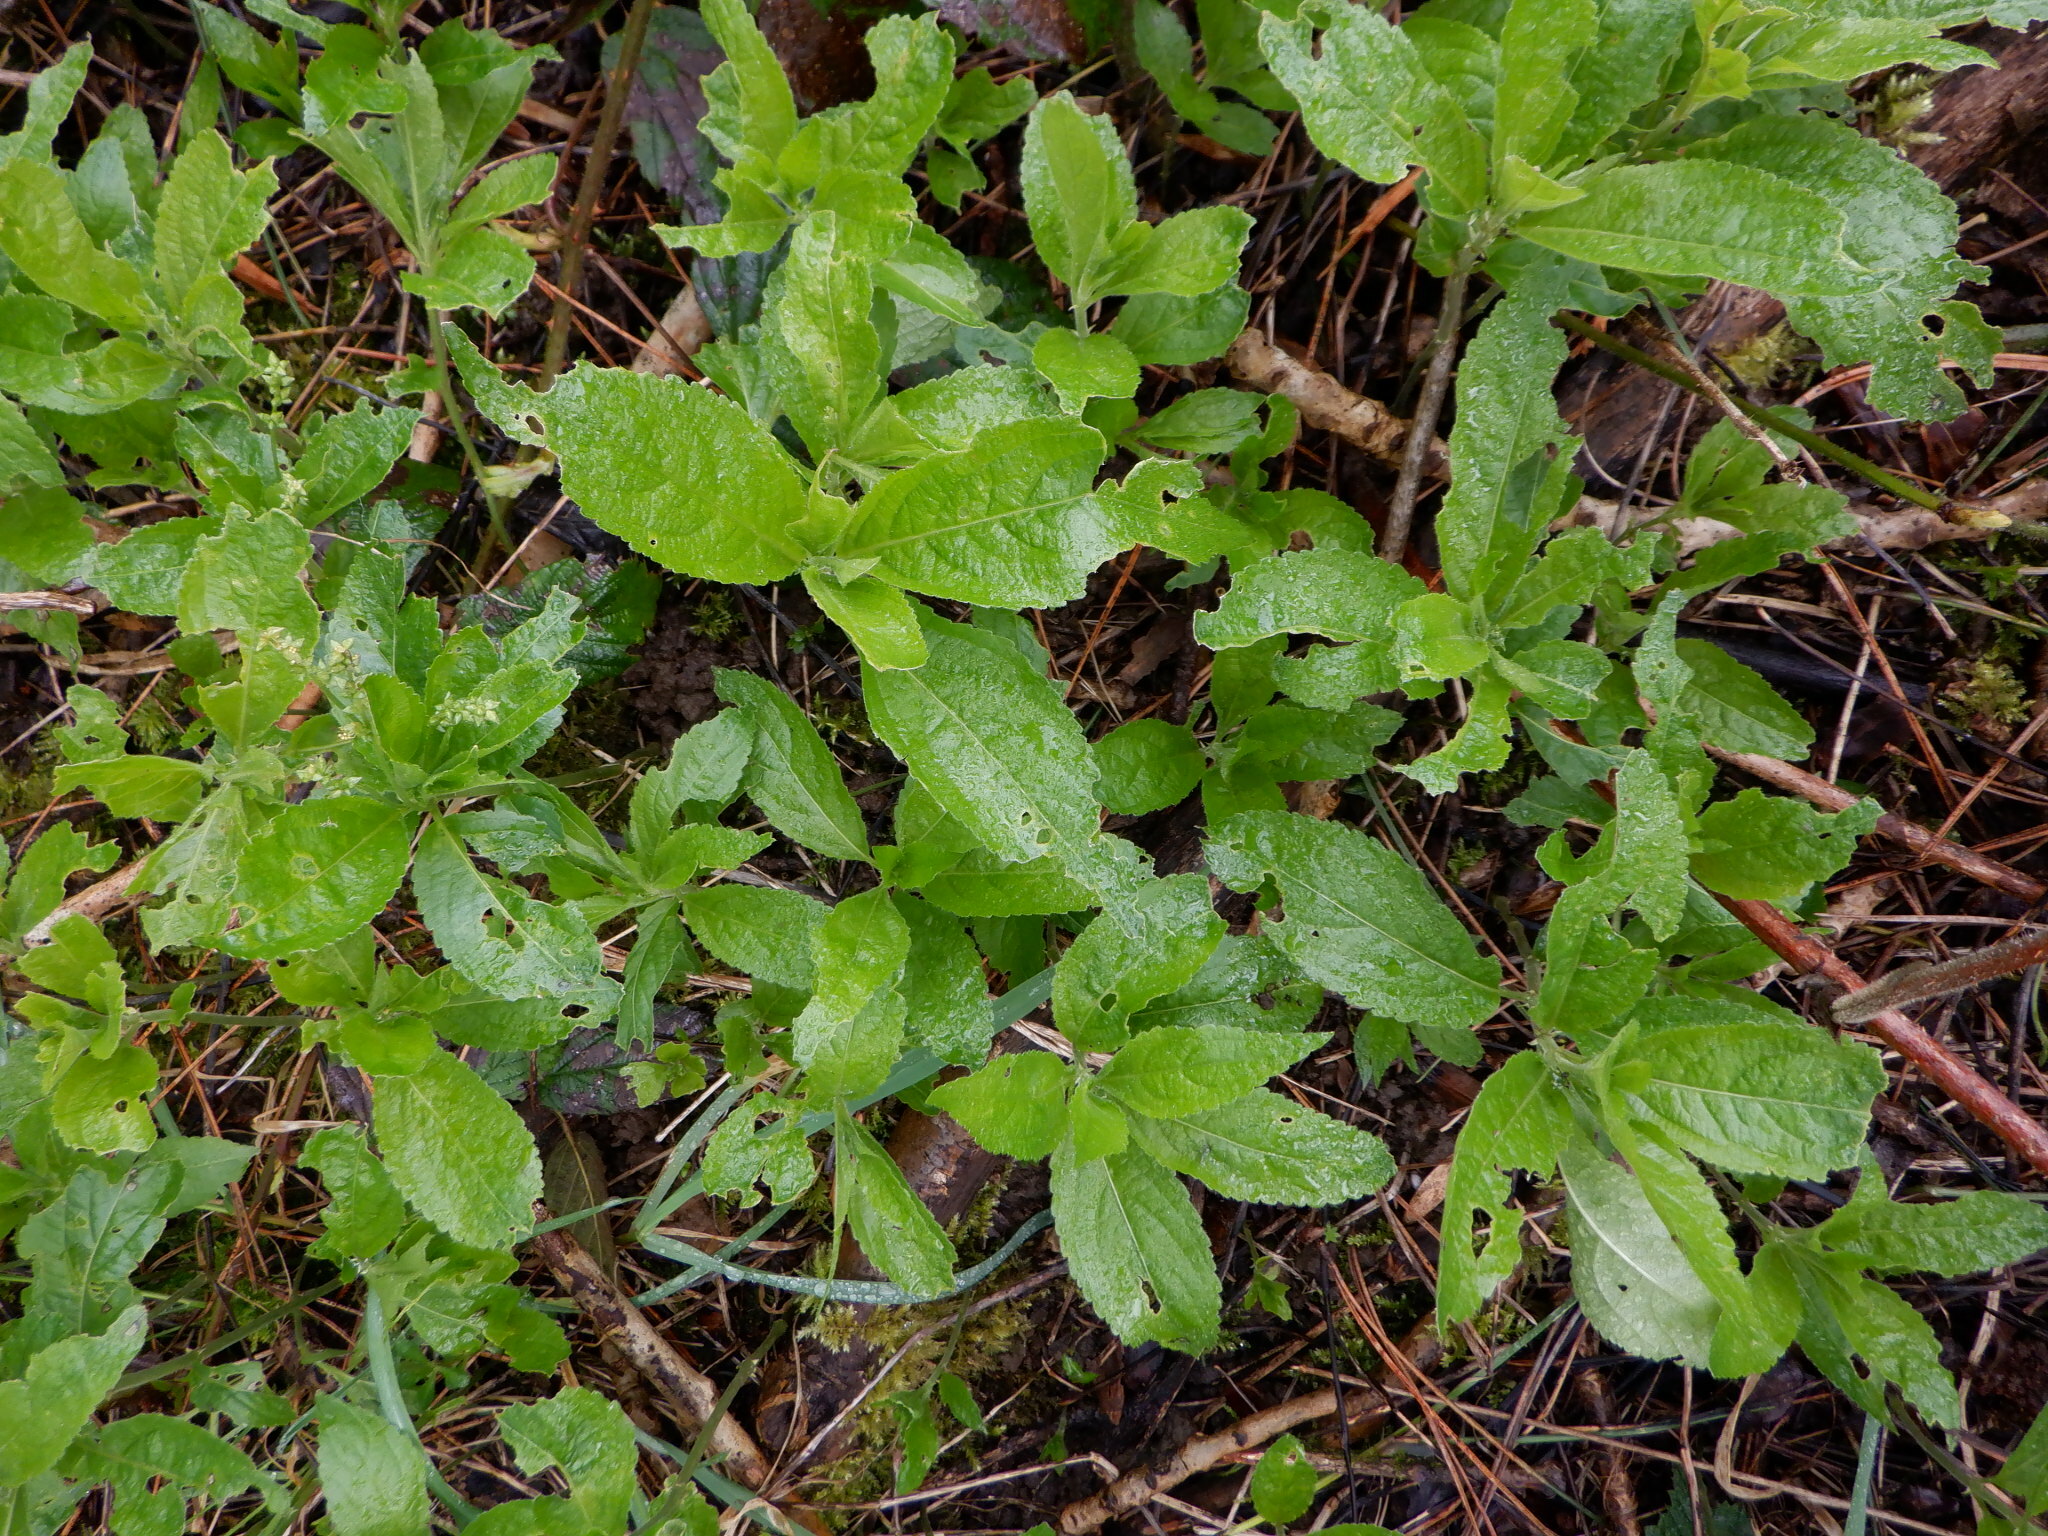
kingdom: Plantae
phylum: Tracheophyta
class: Magnoliopsida
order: Malpighiales
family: Euphorbiaceae
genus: Mercurialis
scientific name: Mercurialis perennis
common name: Dog mercury
